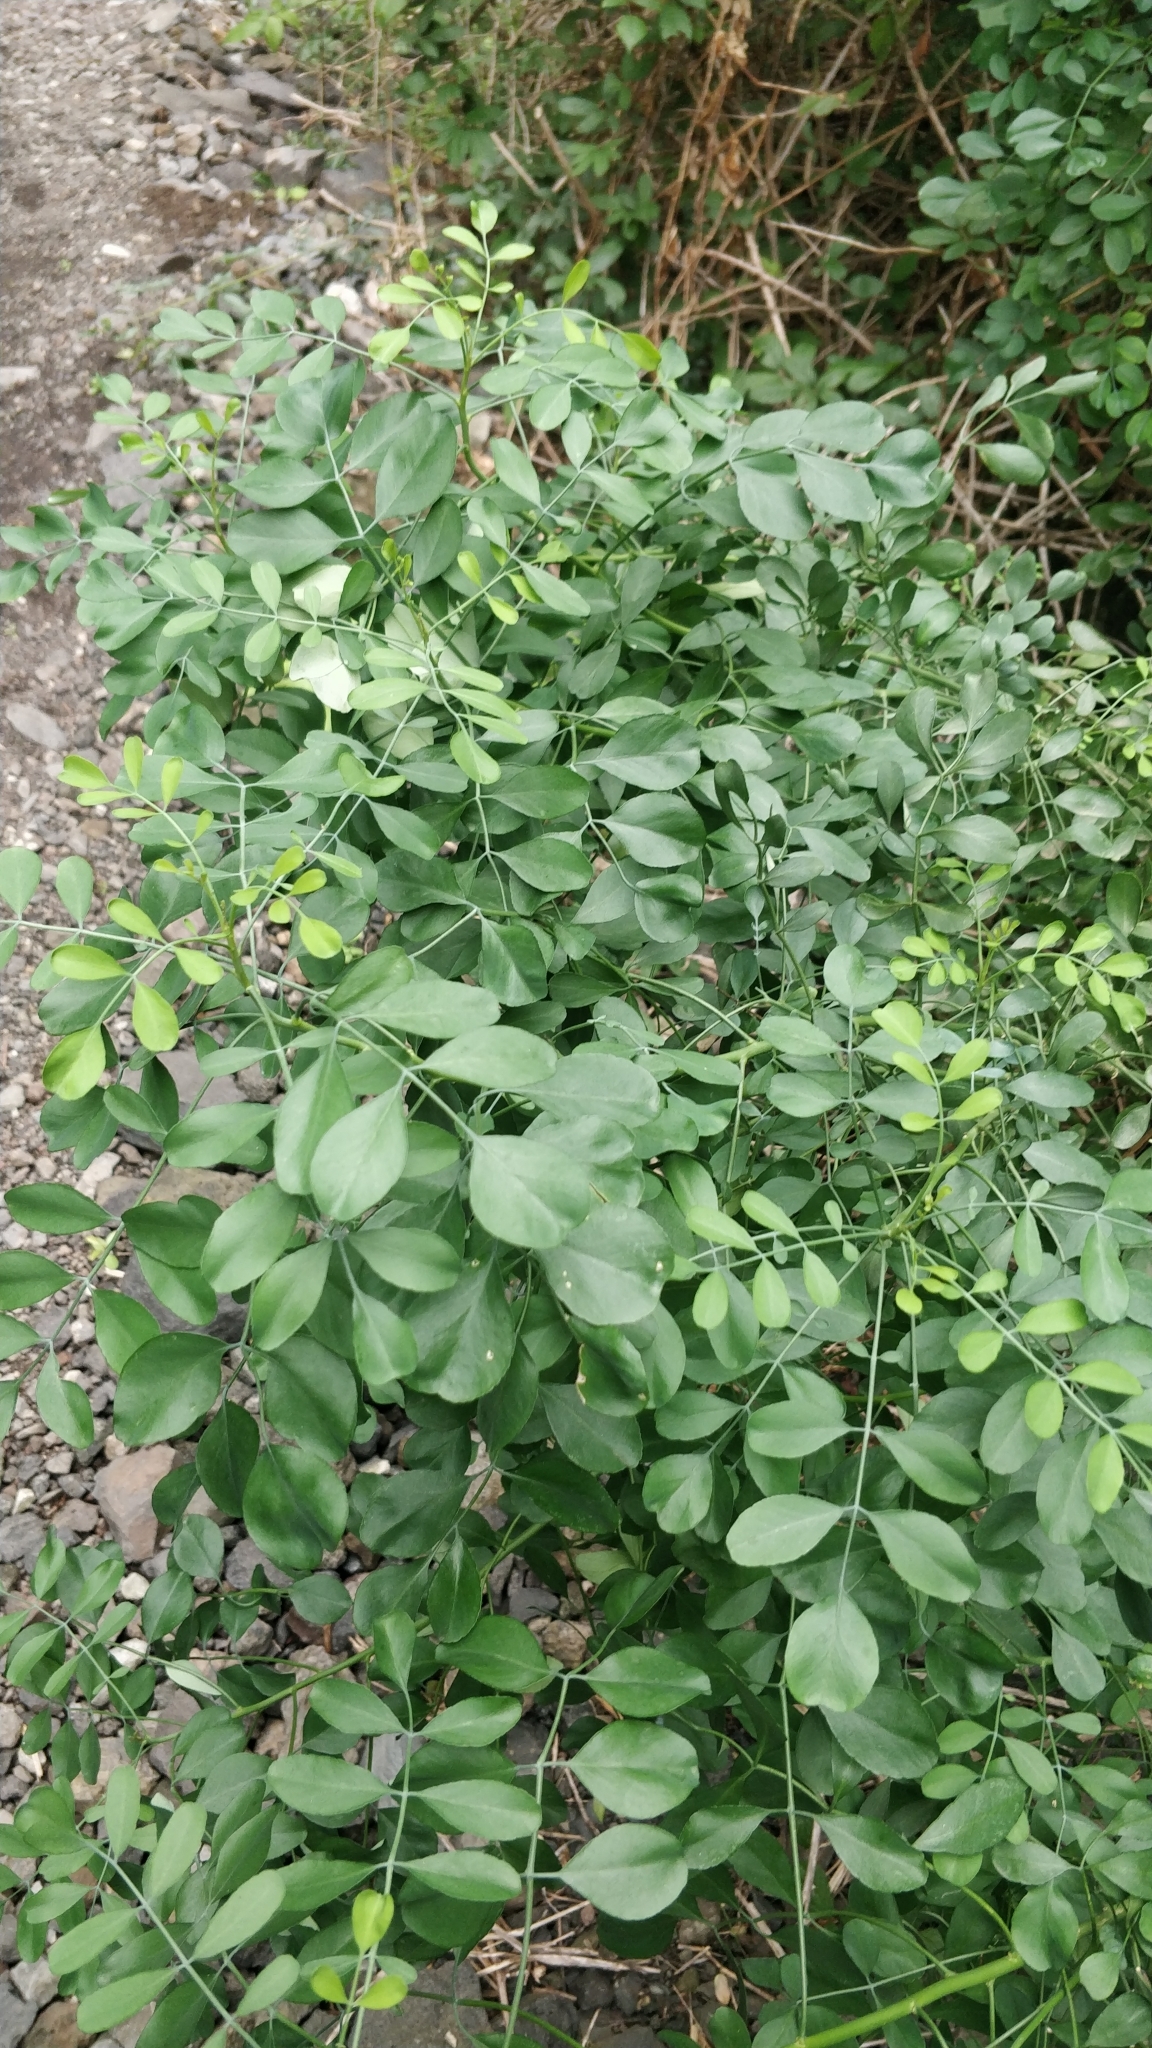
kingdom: Plantae
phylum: Tracheophyta
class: Magnoliopsida
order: Sapindales
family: Rutaceae
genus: Ruta
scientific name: Ruta pinnata
